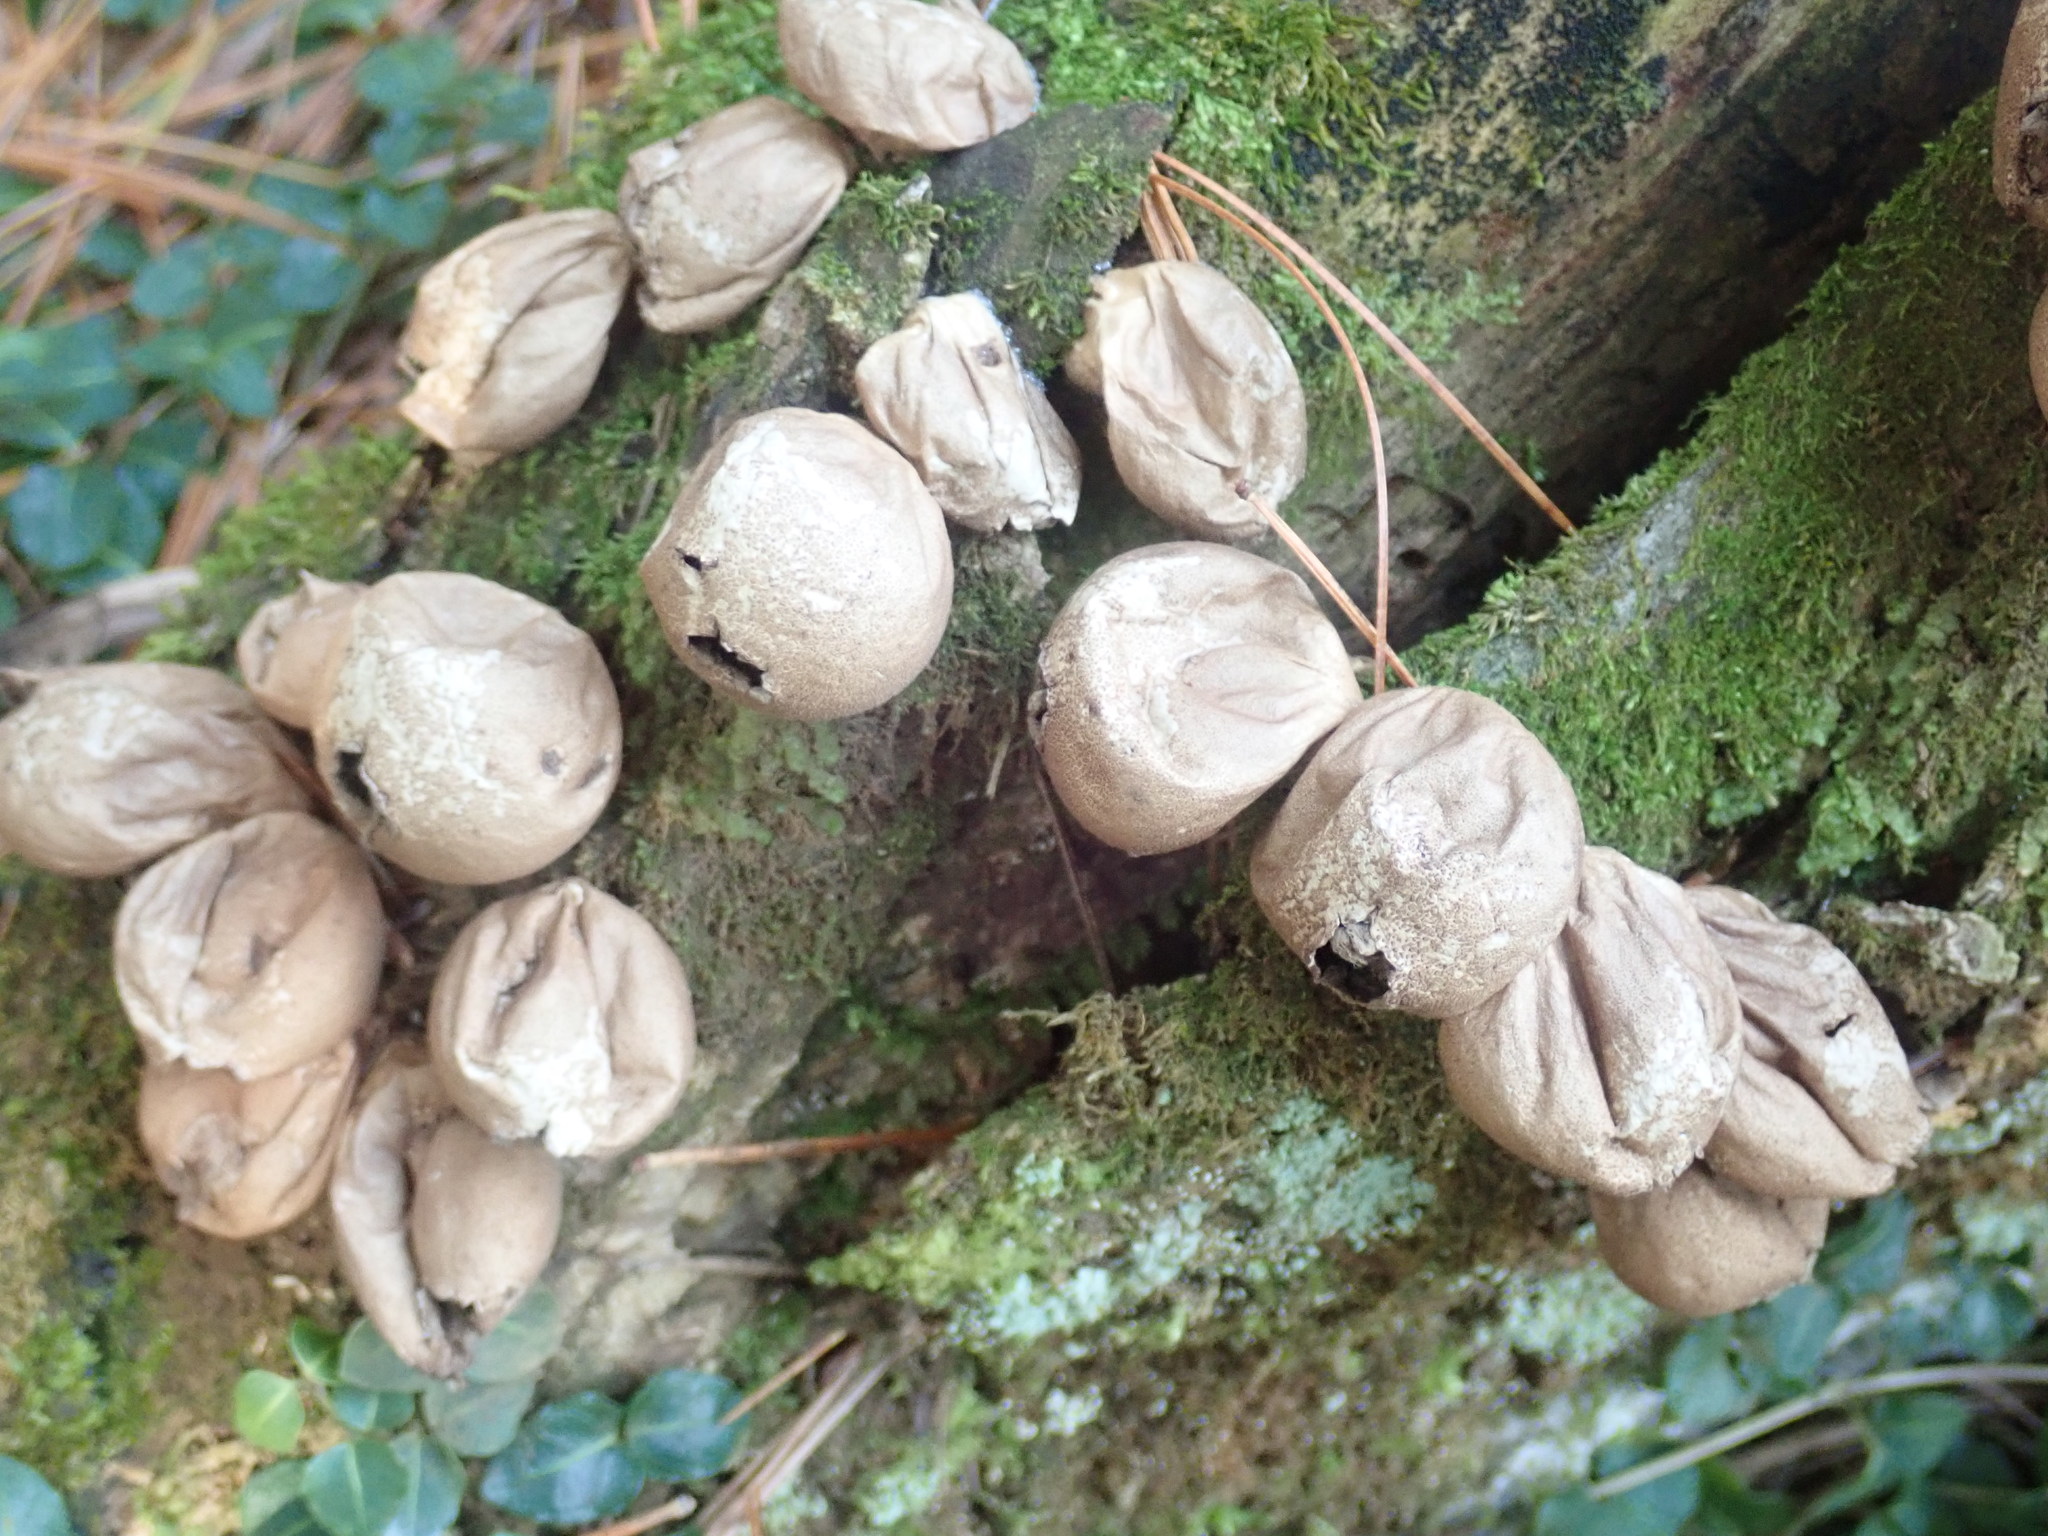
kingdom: Fungi
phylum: Basidiomycota
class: Agaricomycetes
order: Agaricales
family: Lycoperdaceae
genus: Apioperdon
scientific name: Apioperdon pyriforme
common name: Pear-shaped puffball
